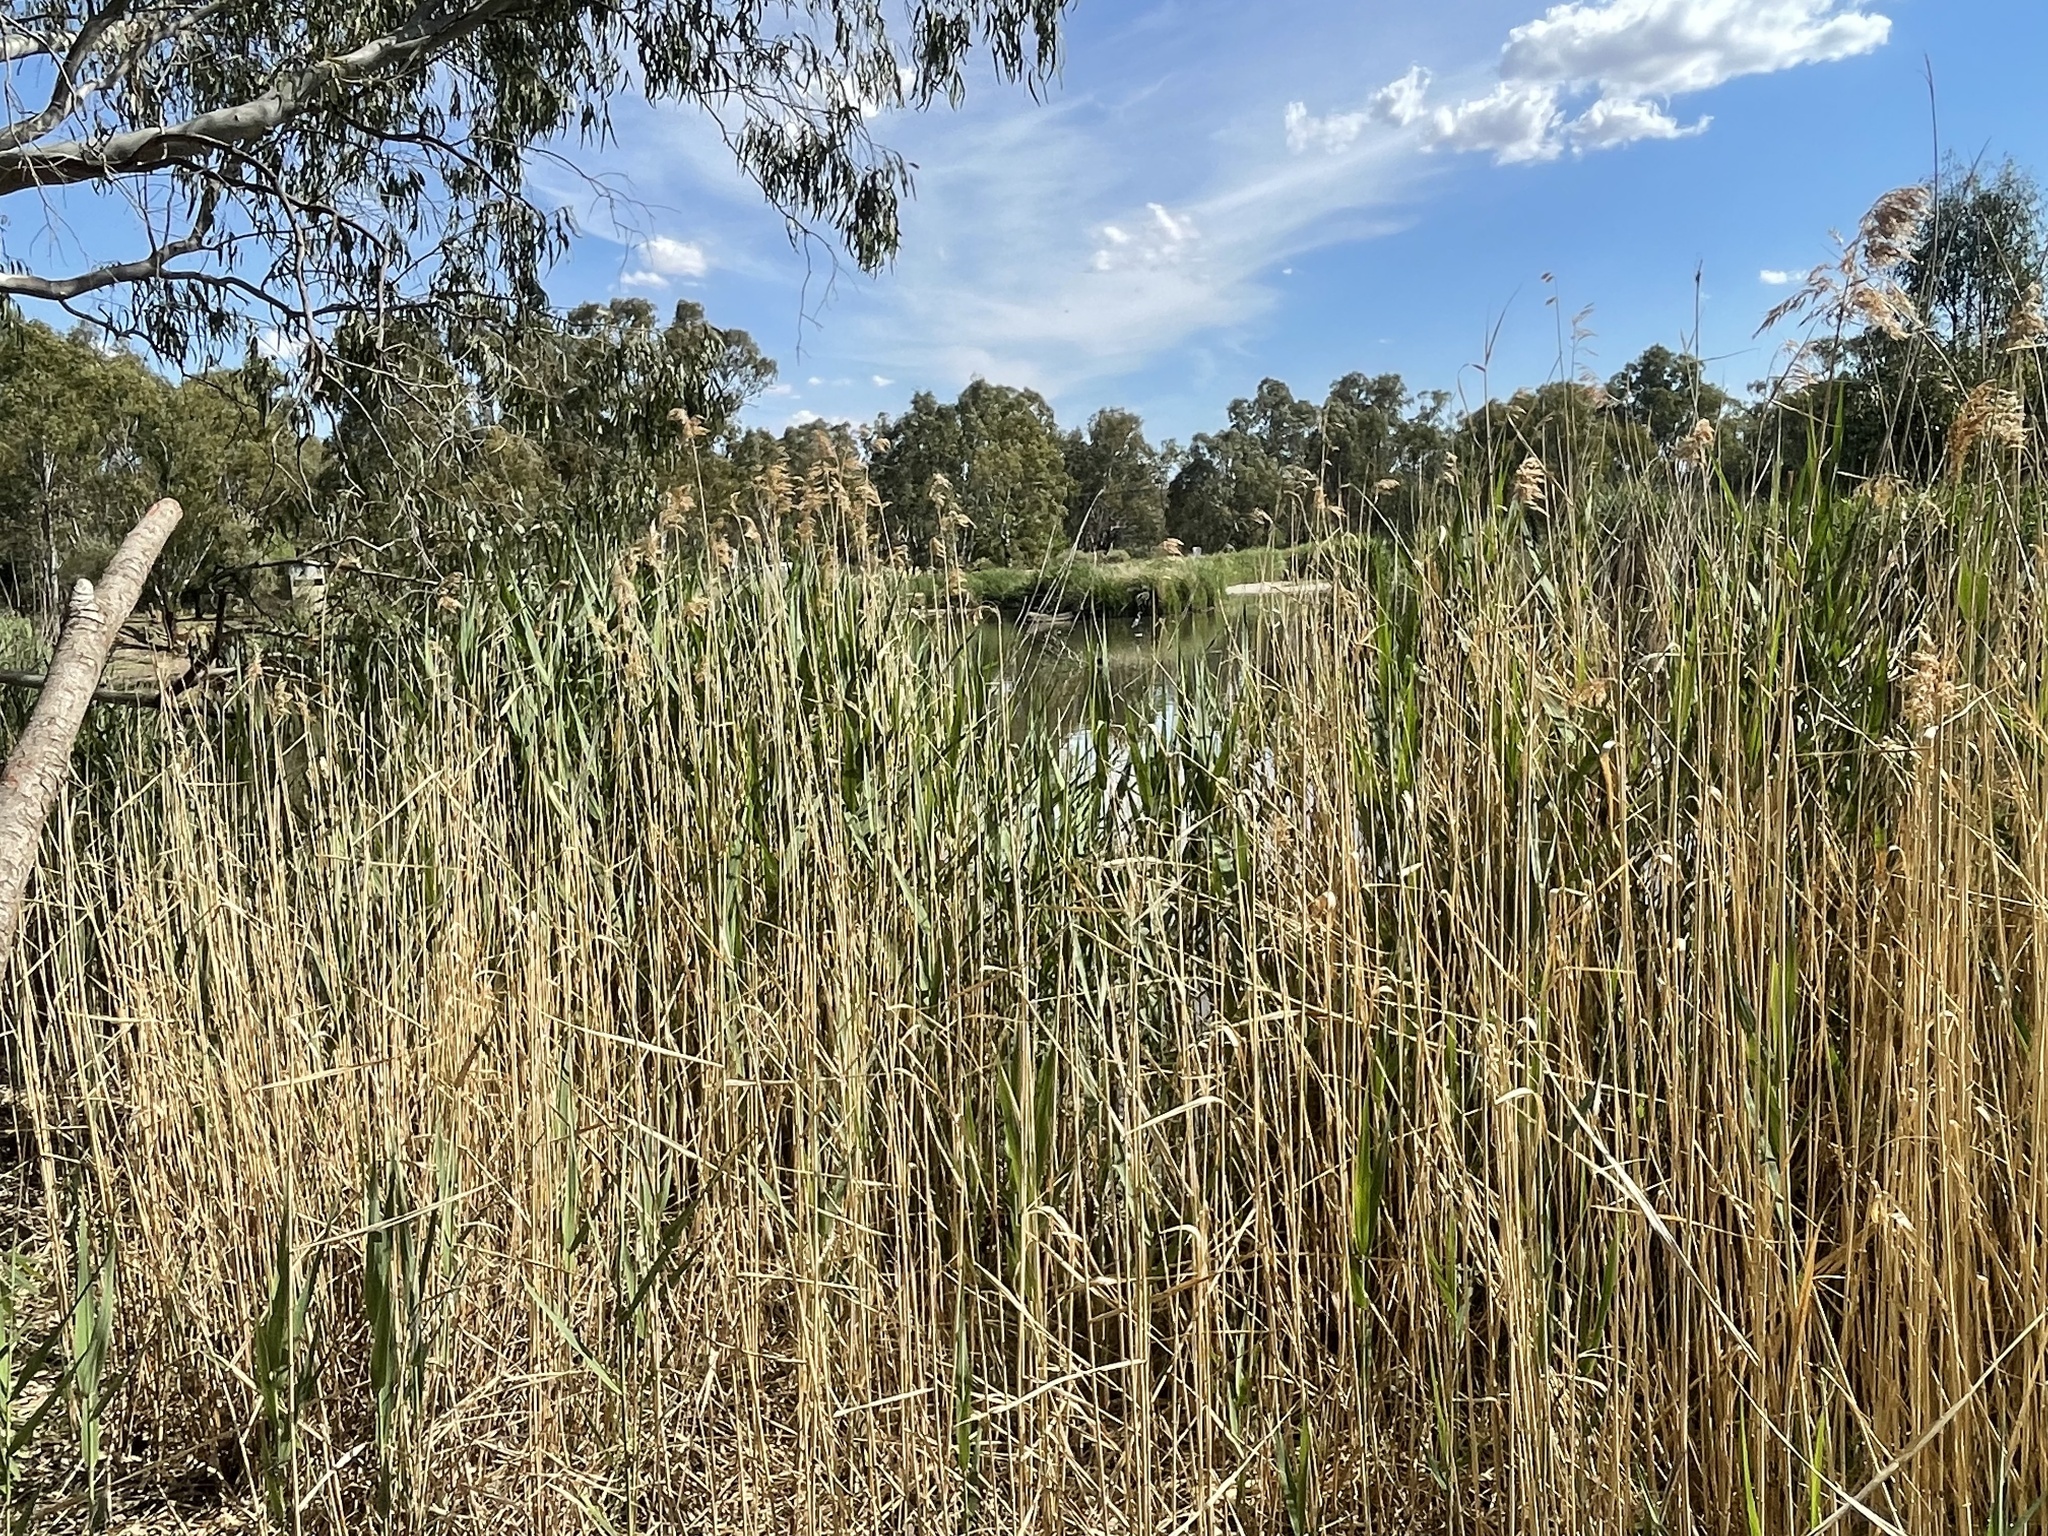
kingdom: Plantae
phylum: Tracheophyta
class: Liliopsida
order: Poales
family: Poaceae
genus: Phragmites
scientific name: Phragmites australis
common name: Common reed
